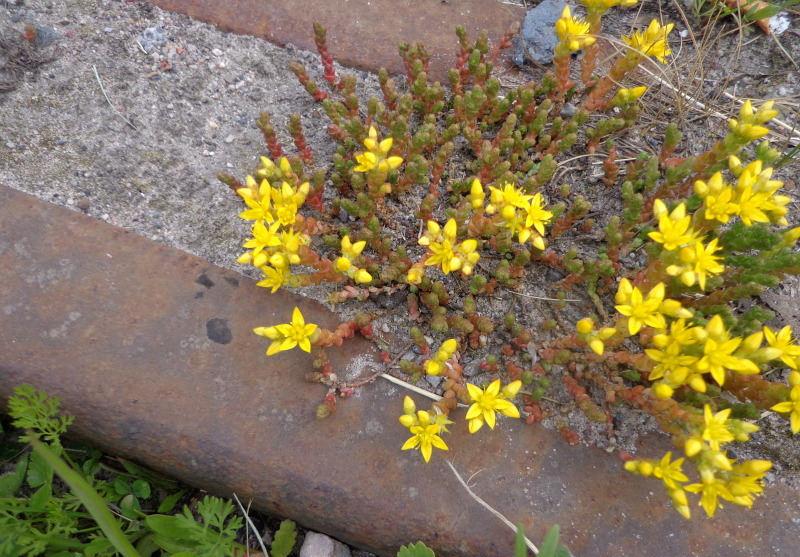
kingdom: Plantae
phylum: Tracheophyta
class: Magnoliopsida
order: Saxifragales
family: Crassulaceae
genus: Sedum
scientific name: Sedum acre
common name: Biting stonecrop
